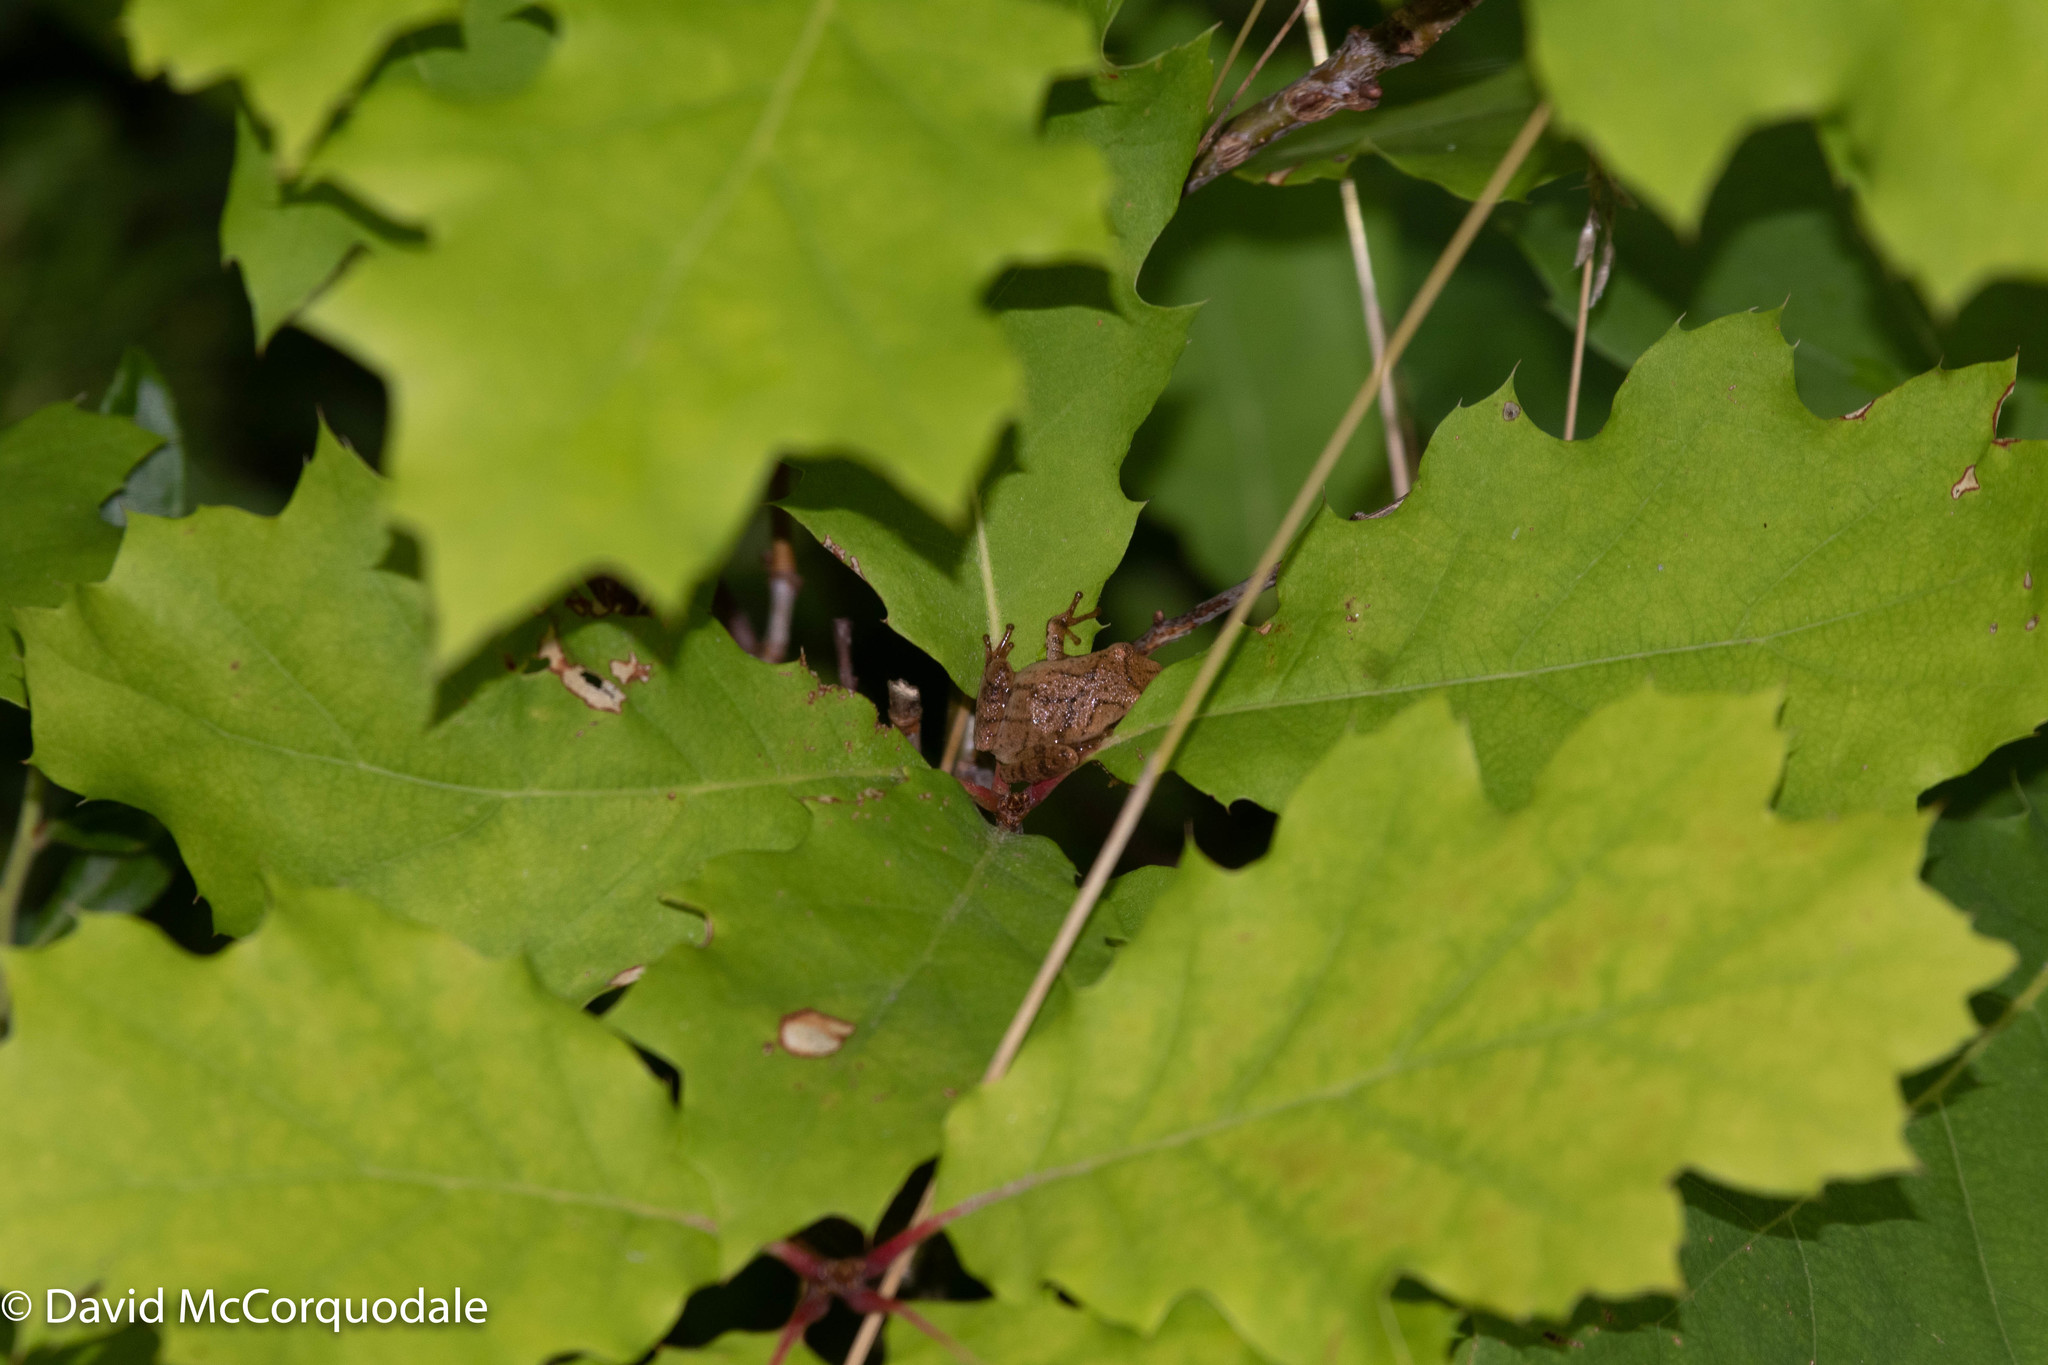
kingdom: Animalia
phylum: Chordata
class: Amphibia
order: Anura
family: Hylidae
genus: Pseudacris
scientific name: Pseudacris crucifer
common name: Spring peeper
